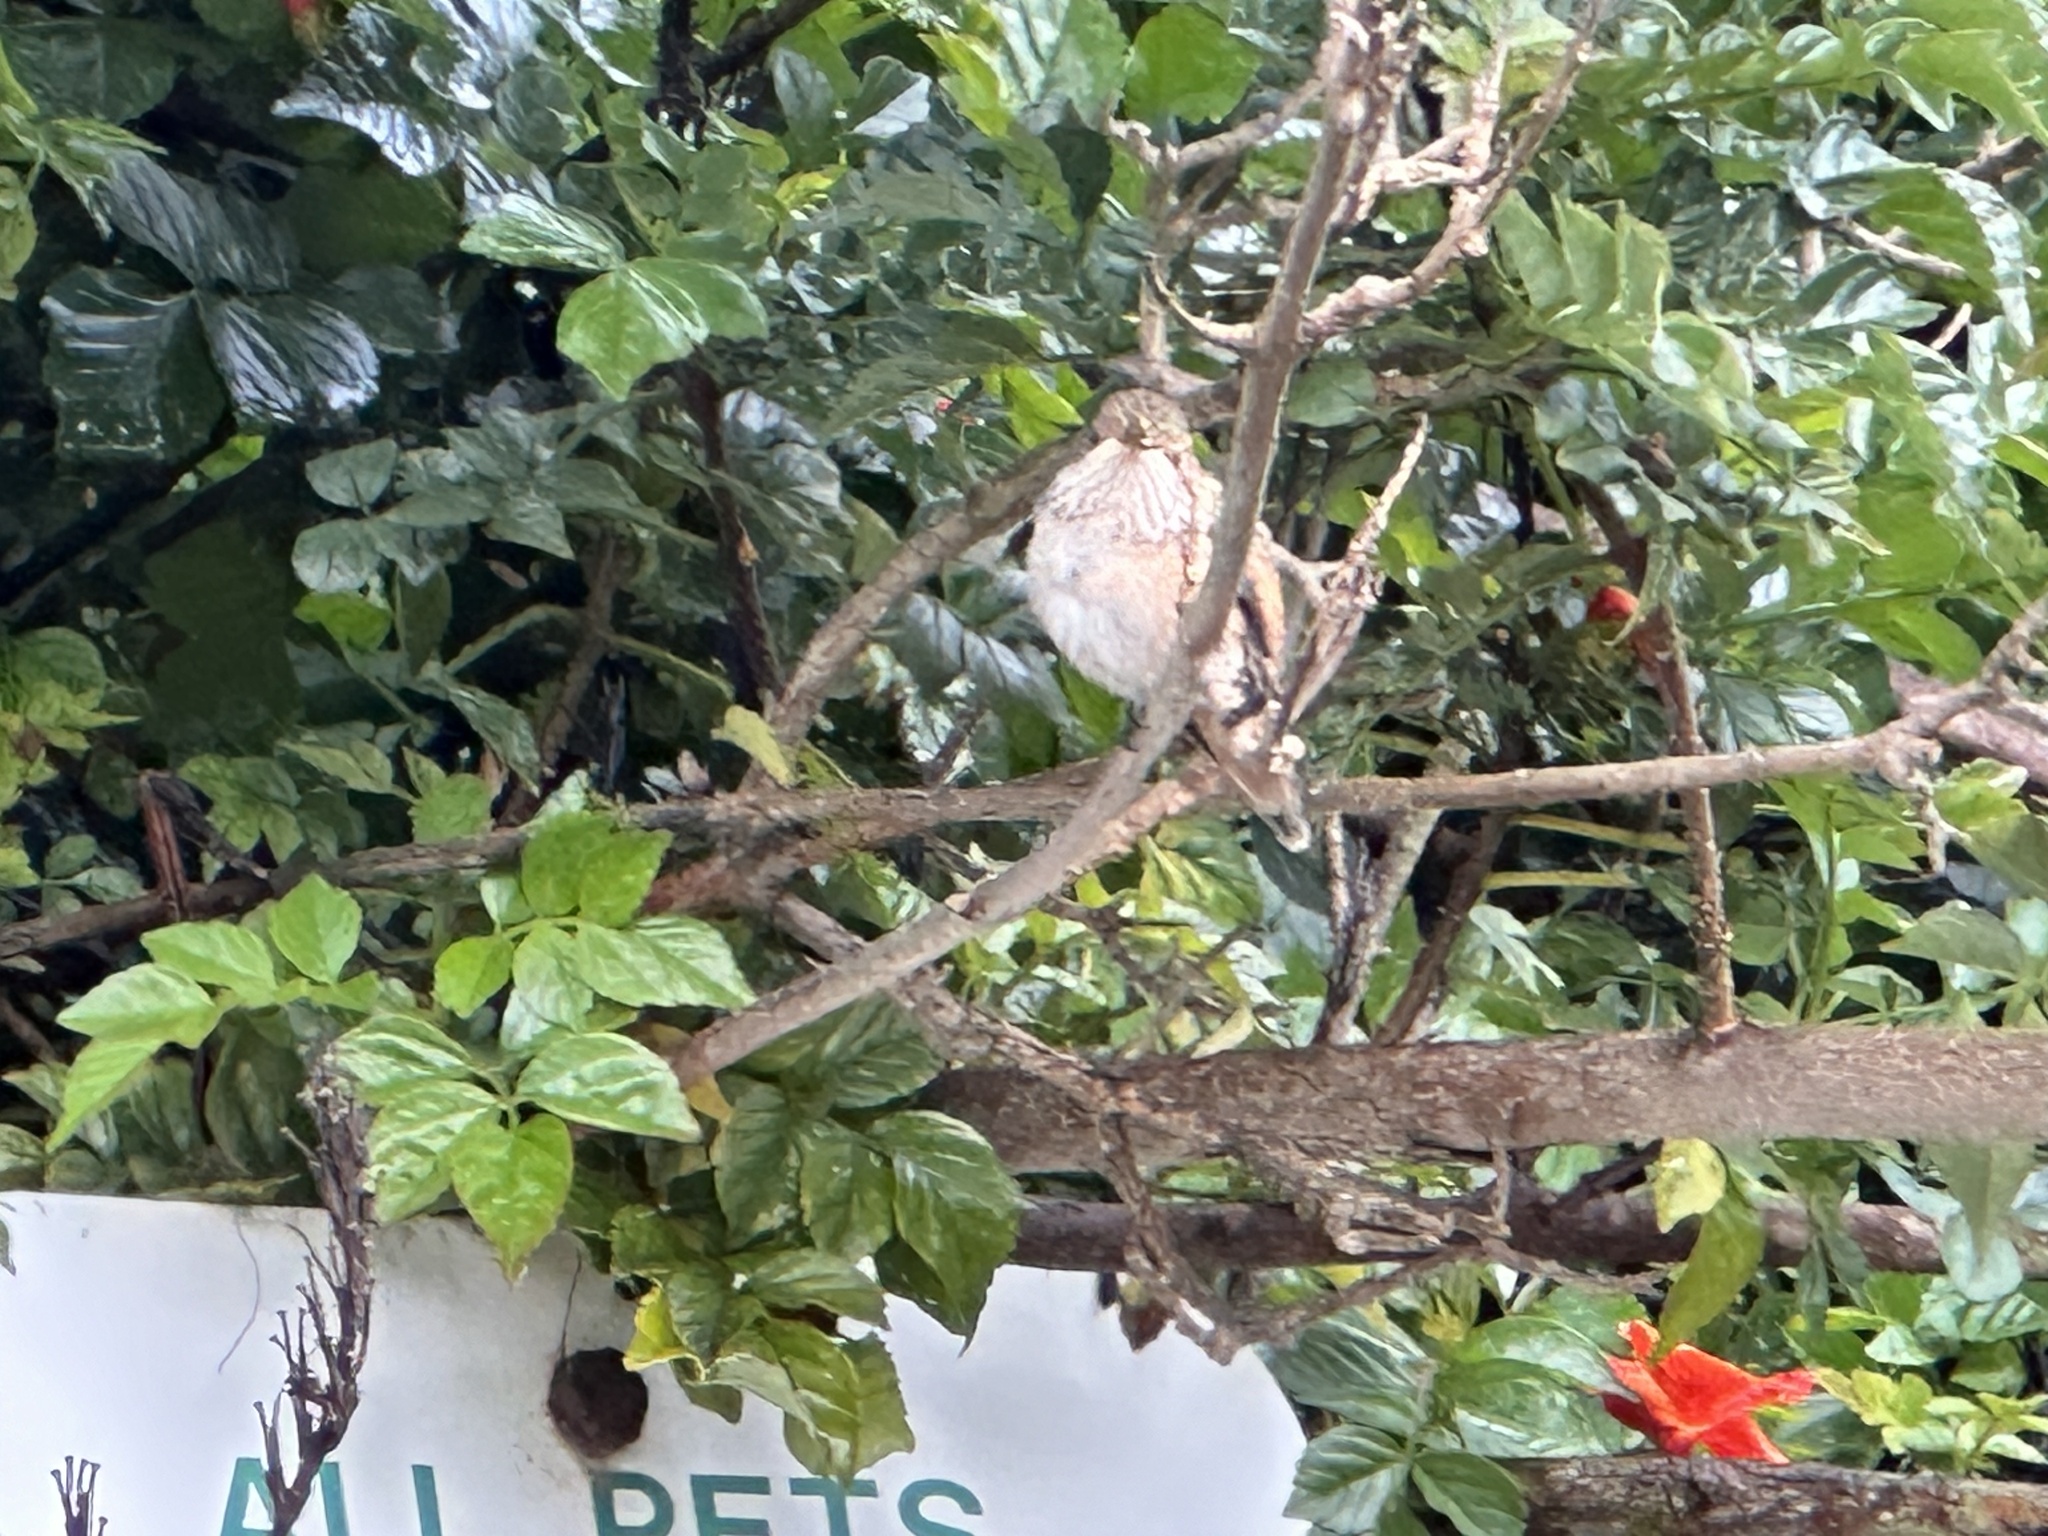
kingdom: Animalia
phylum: Chordata
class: Aves
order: Apodiformes
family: Trochilidae
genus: Selasphorus
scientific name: Selasphorus sasin
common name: Allen's hummingbird
